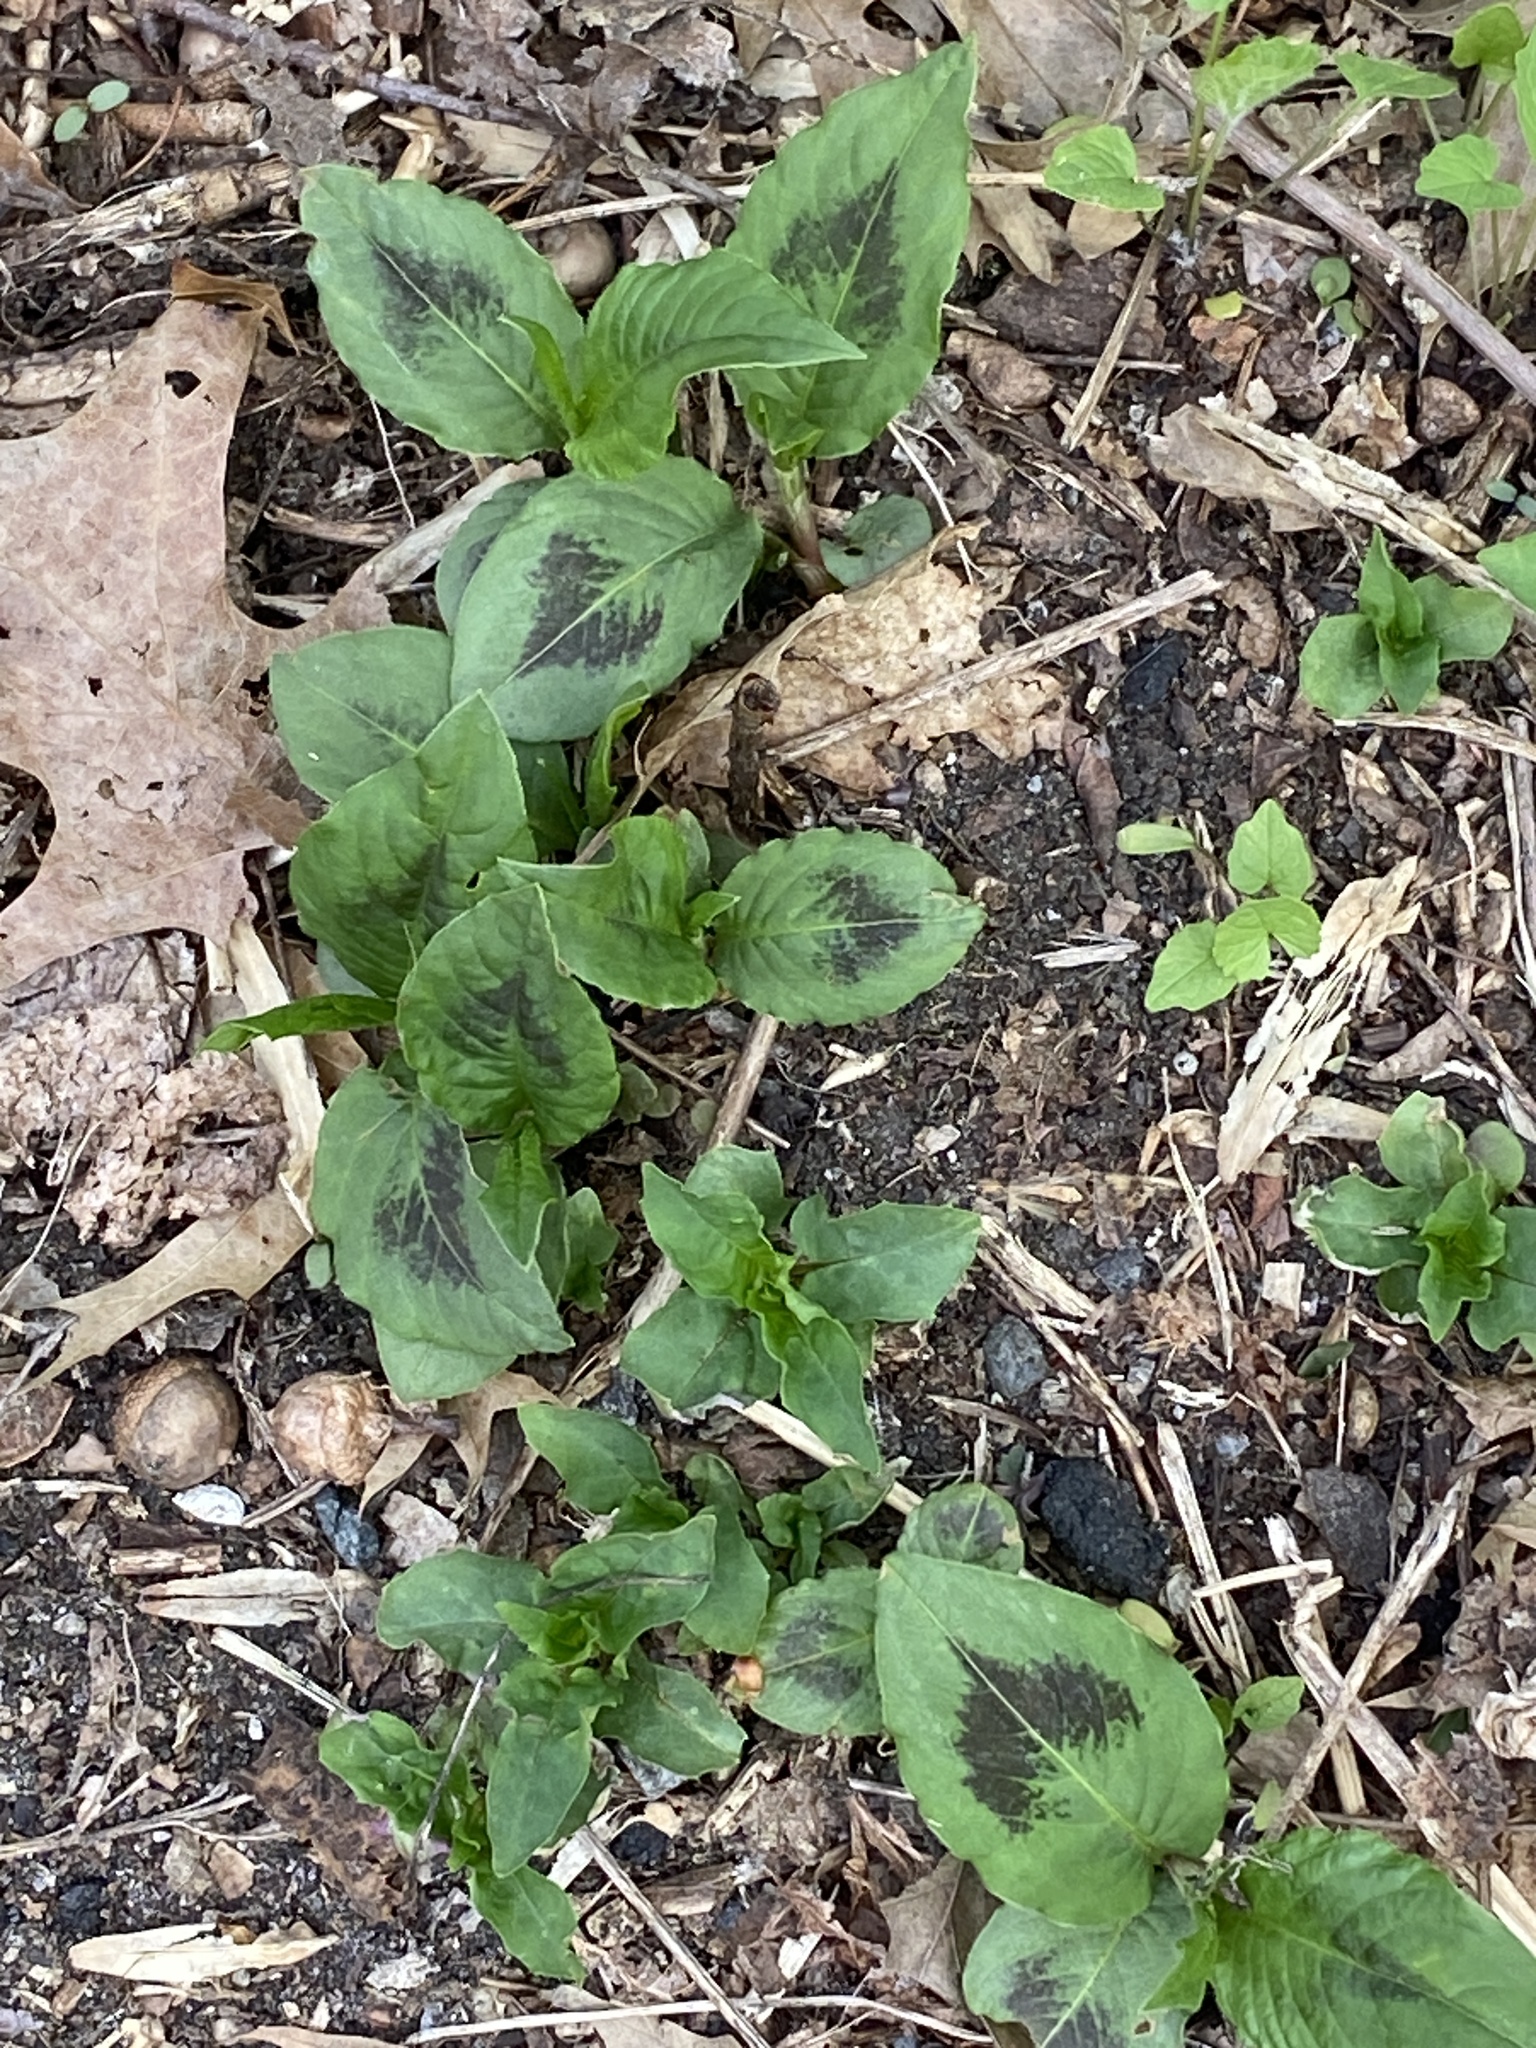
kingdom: Plantae
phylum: Tracheophyta
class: Magnoliopsida
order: Caryophyllales
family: Polygonaceae
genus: Persicaria
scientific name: Persicaria virginiana
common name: Jumpseed
